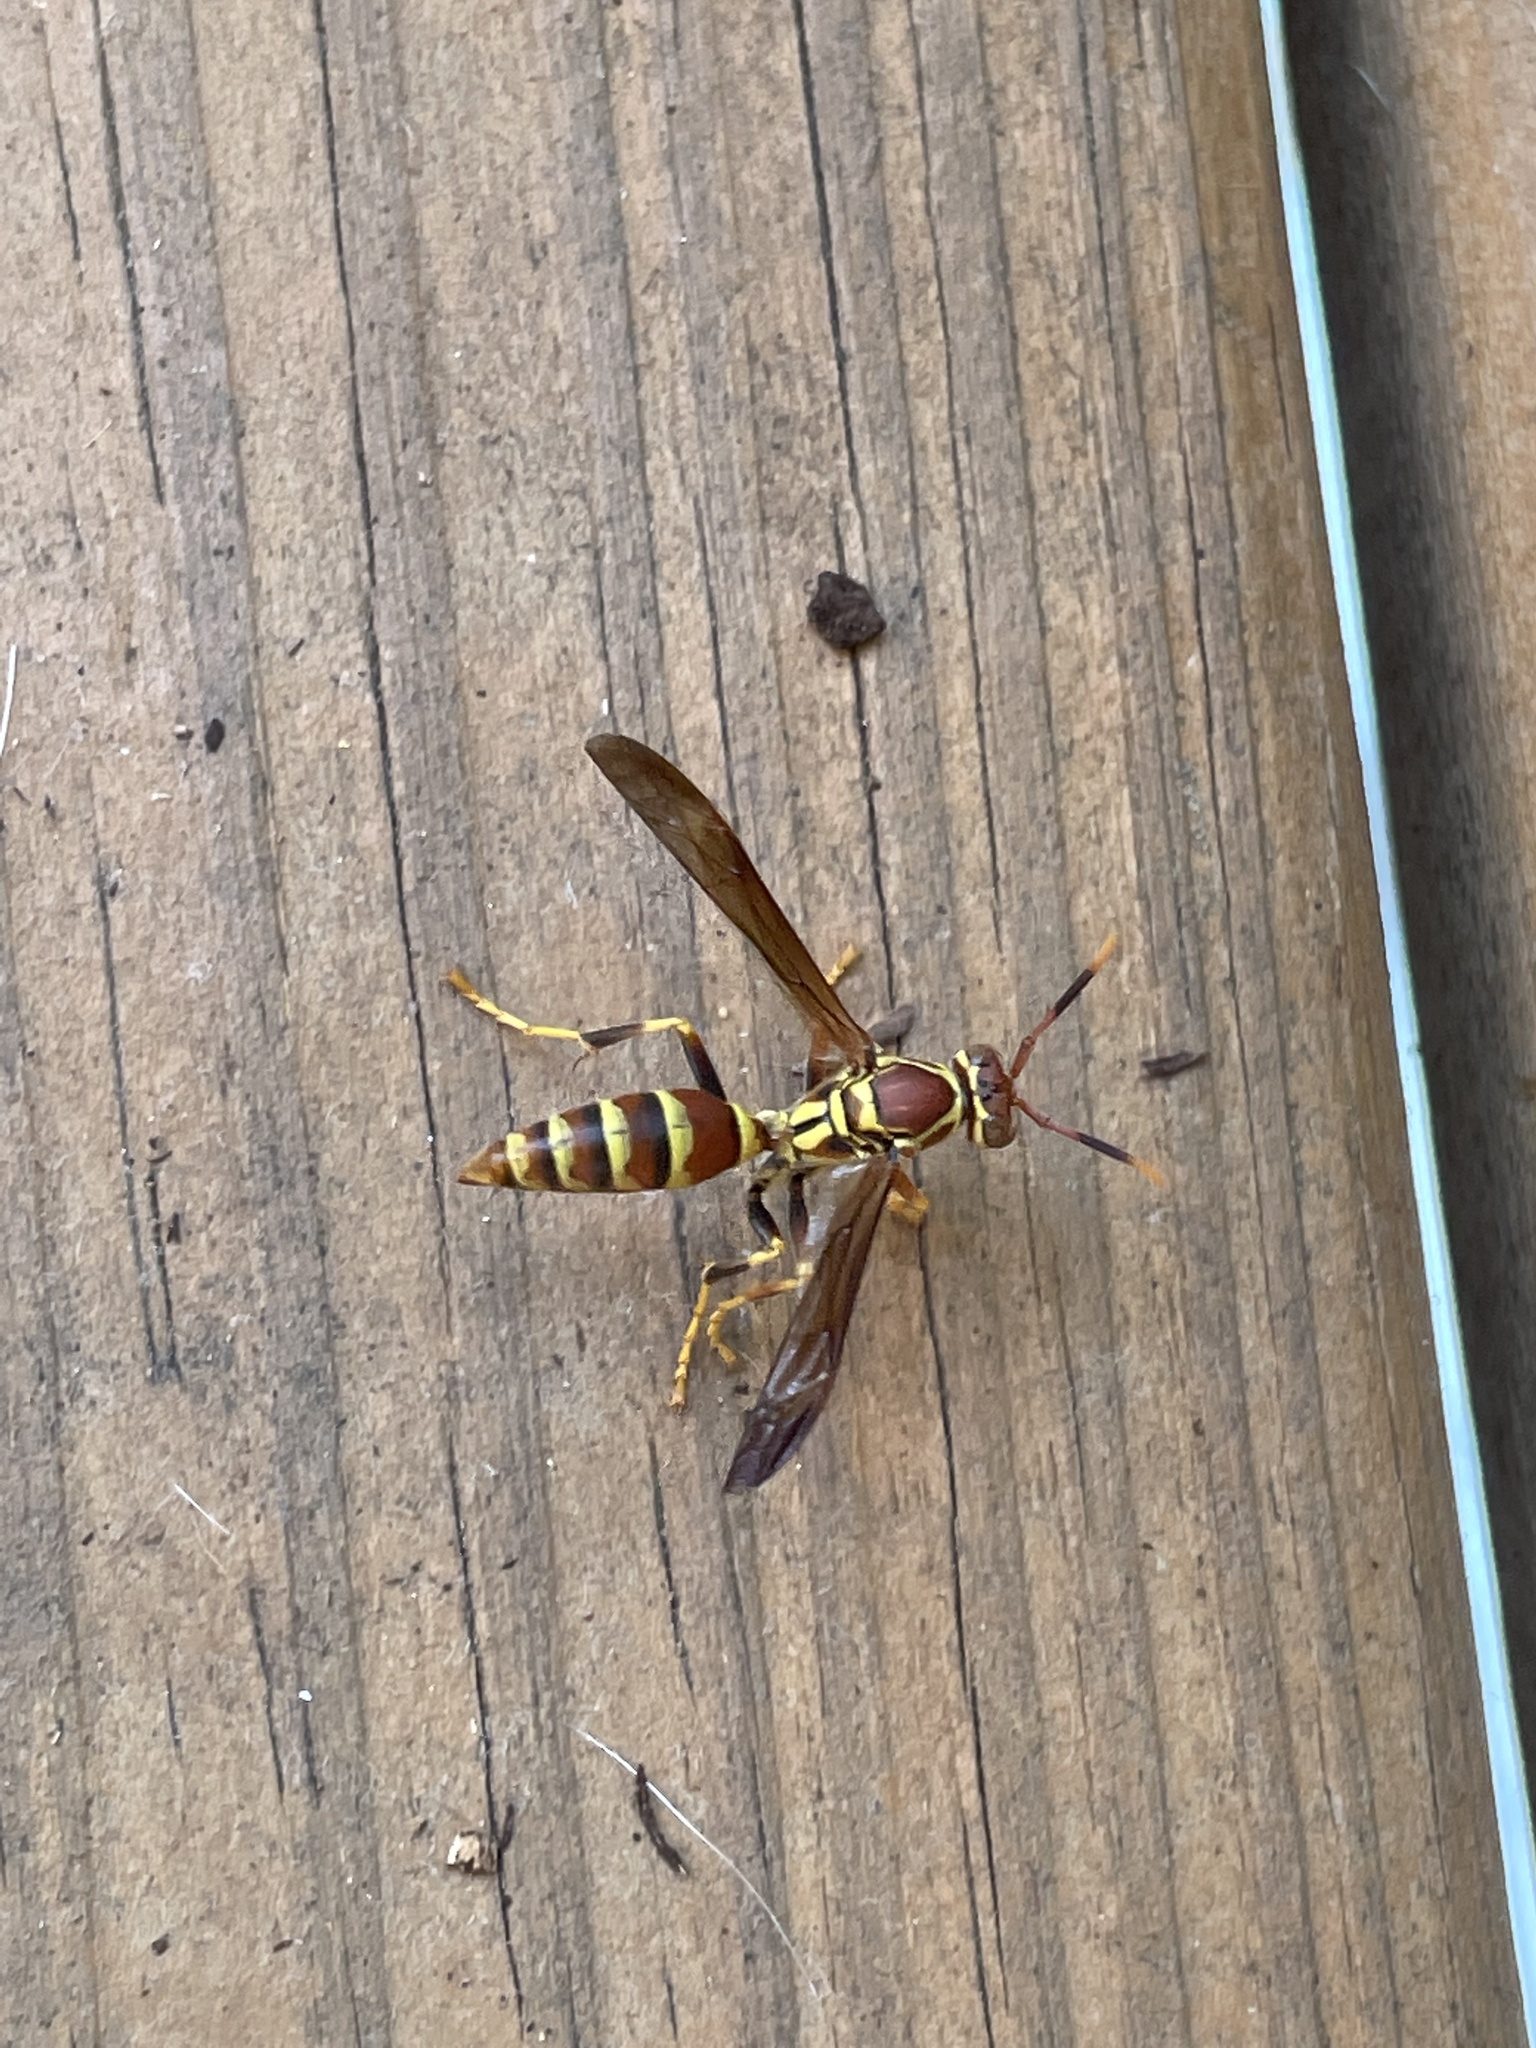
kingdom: Animalia
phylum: Arthropoda
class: Insecta
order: Hymenoptera
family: Eumenidae
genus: Polistes
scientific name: Polistes exclamans
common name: Paper wasp
